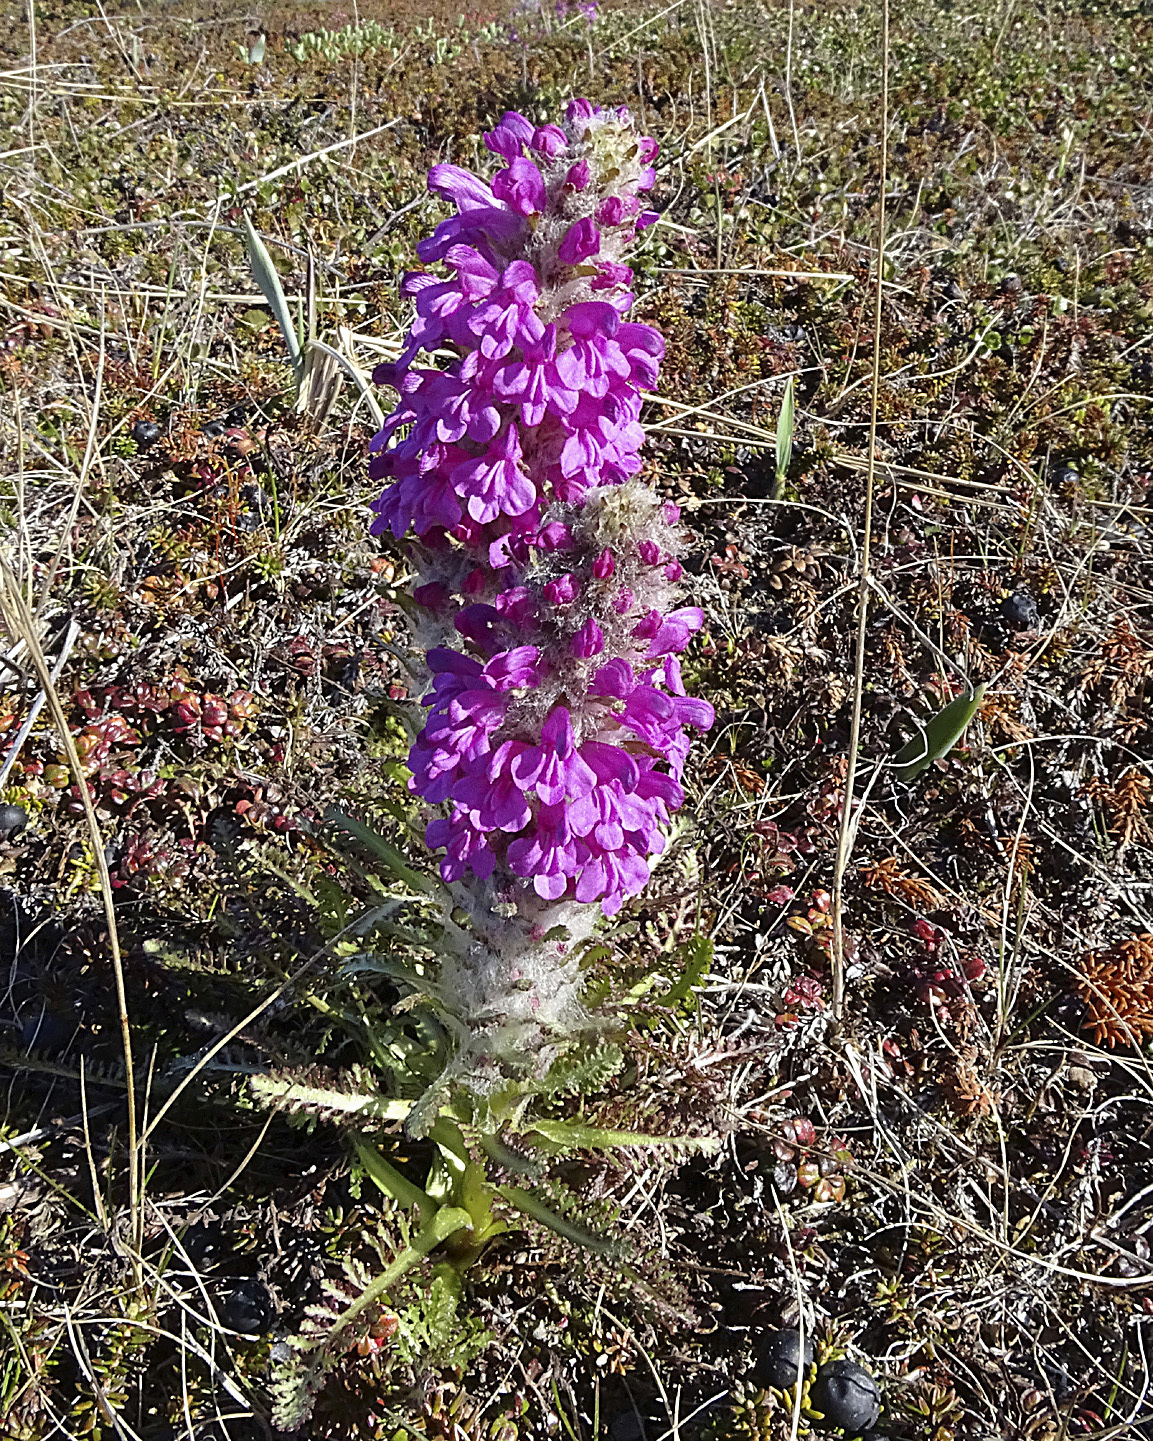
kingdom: Plantae
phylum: Tracheophyta
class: Magnoliopsida
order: Lamiales
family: Orobanchaceae
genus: Pedicularis
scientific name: Pedicularis lanata
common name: Woolly lousewort
